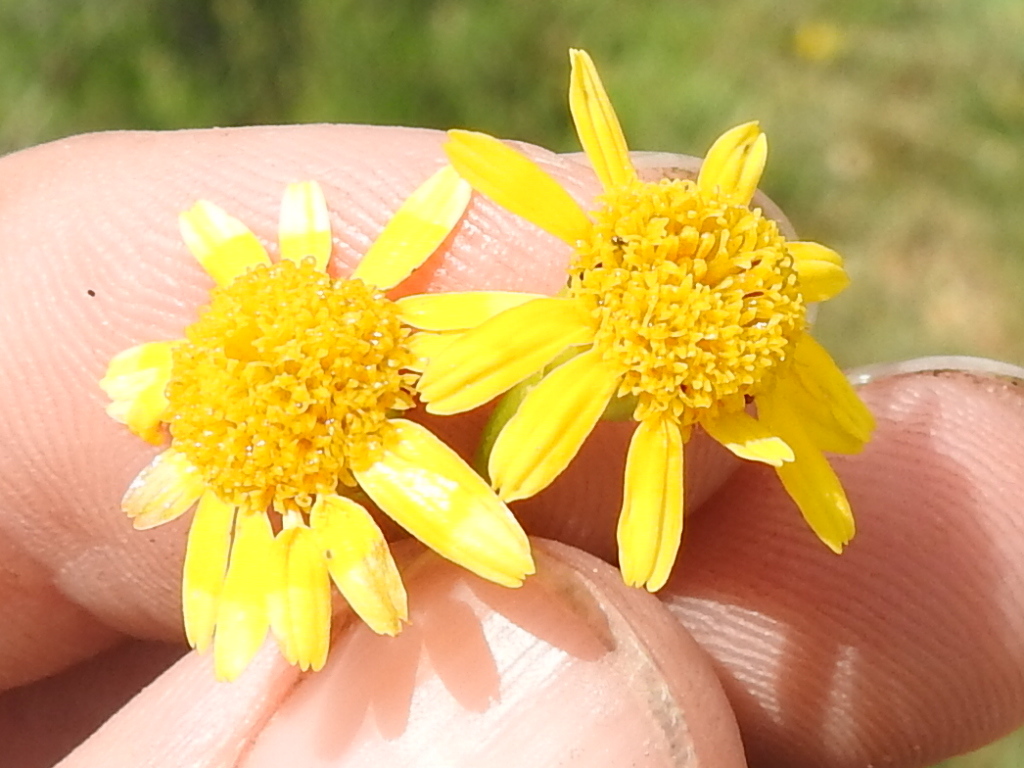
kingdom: Plantae
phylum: Tracheophyta
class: Magnoliopsida
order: Asterales
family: Asteraceae
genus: Thymophylla
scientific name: Thymophylla tenuiloba
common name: Dahlberg's daisy
